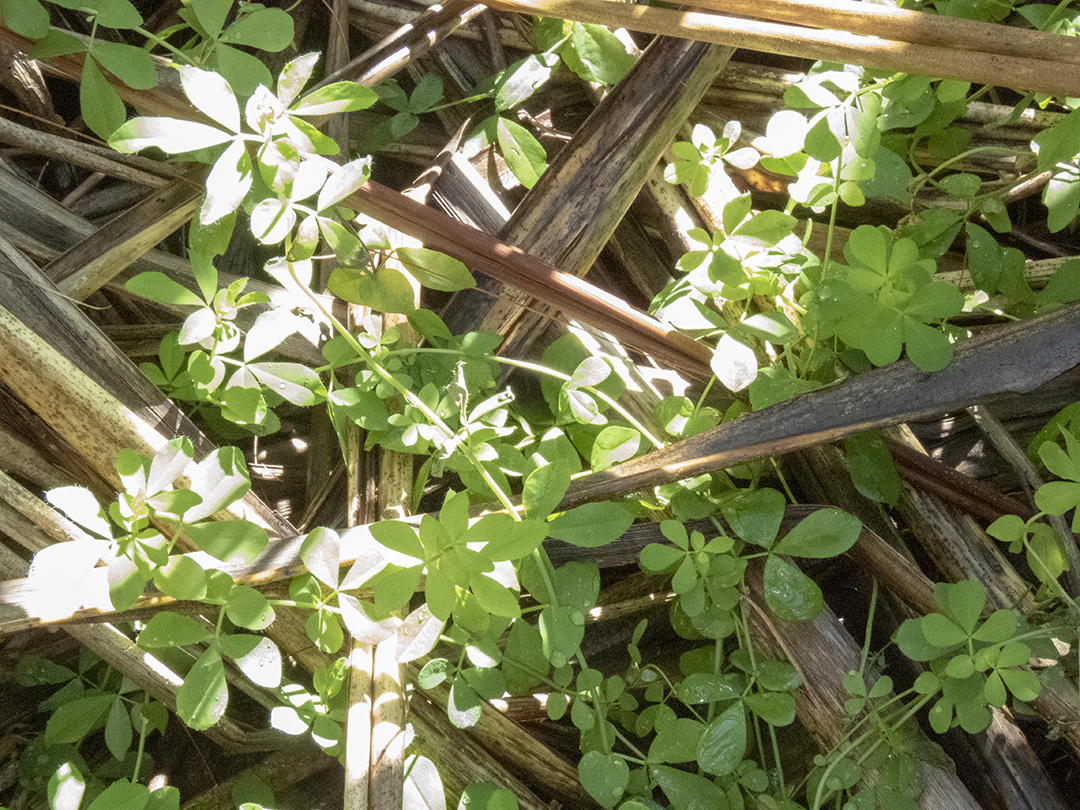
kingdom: Plantae
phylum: Tracheophyta
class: Magnoliopsida
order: Fabales
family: Fabaceae
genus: Lotus
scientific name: Lotus pedunculatus
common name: Greater birdsfoot-trefoil
